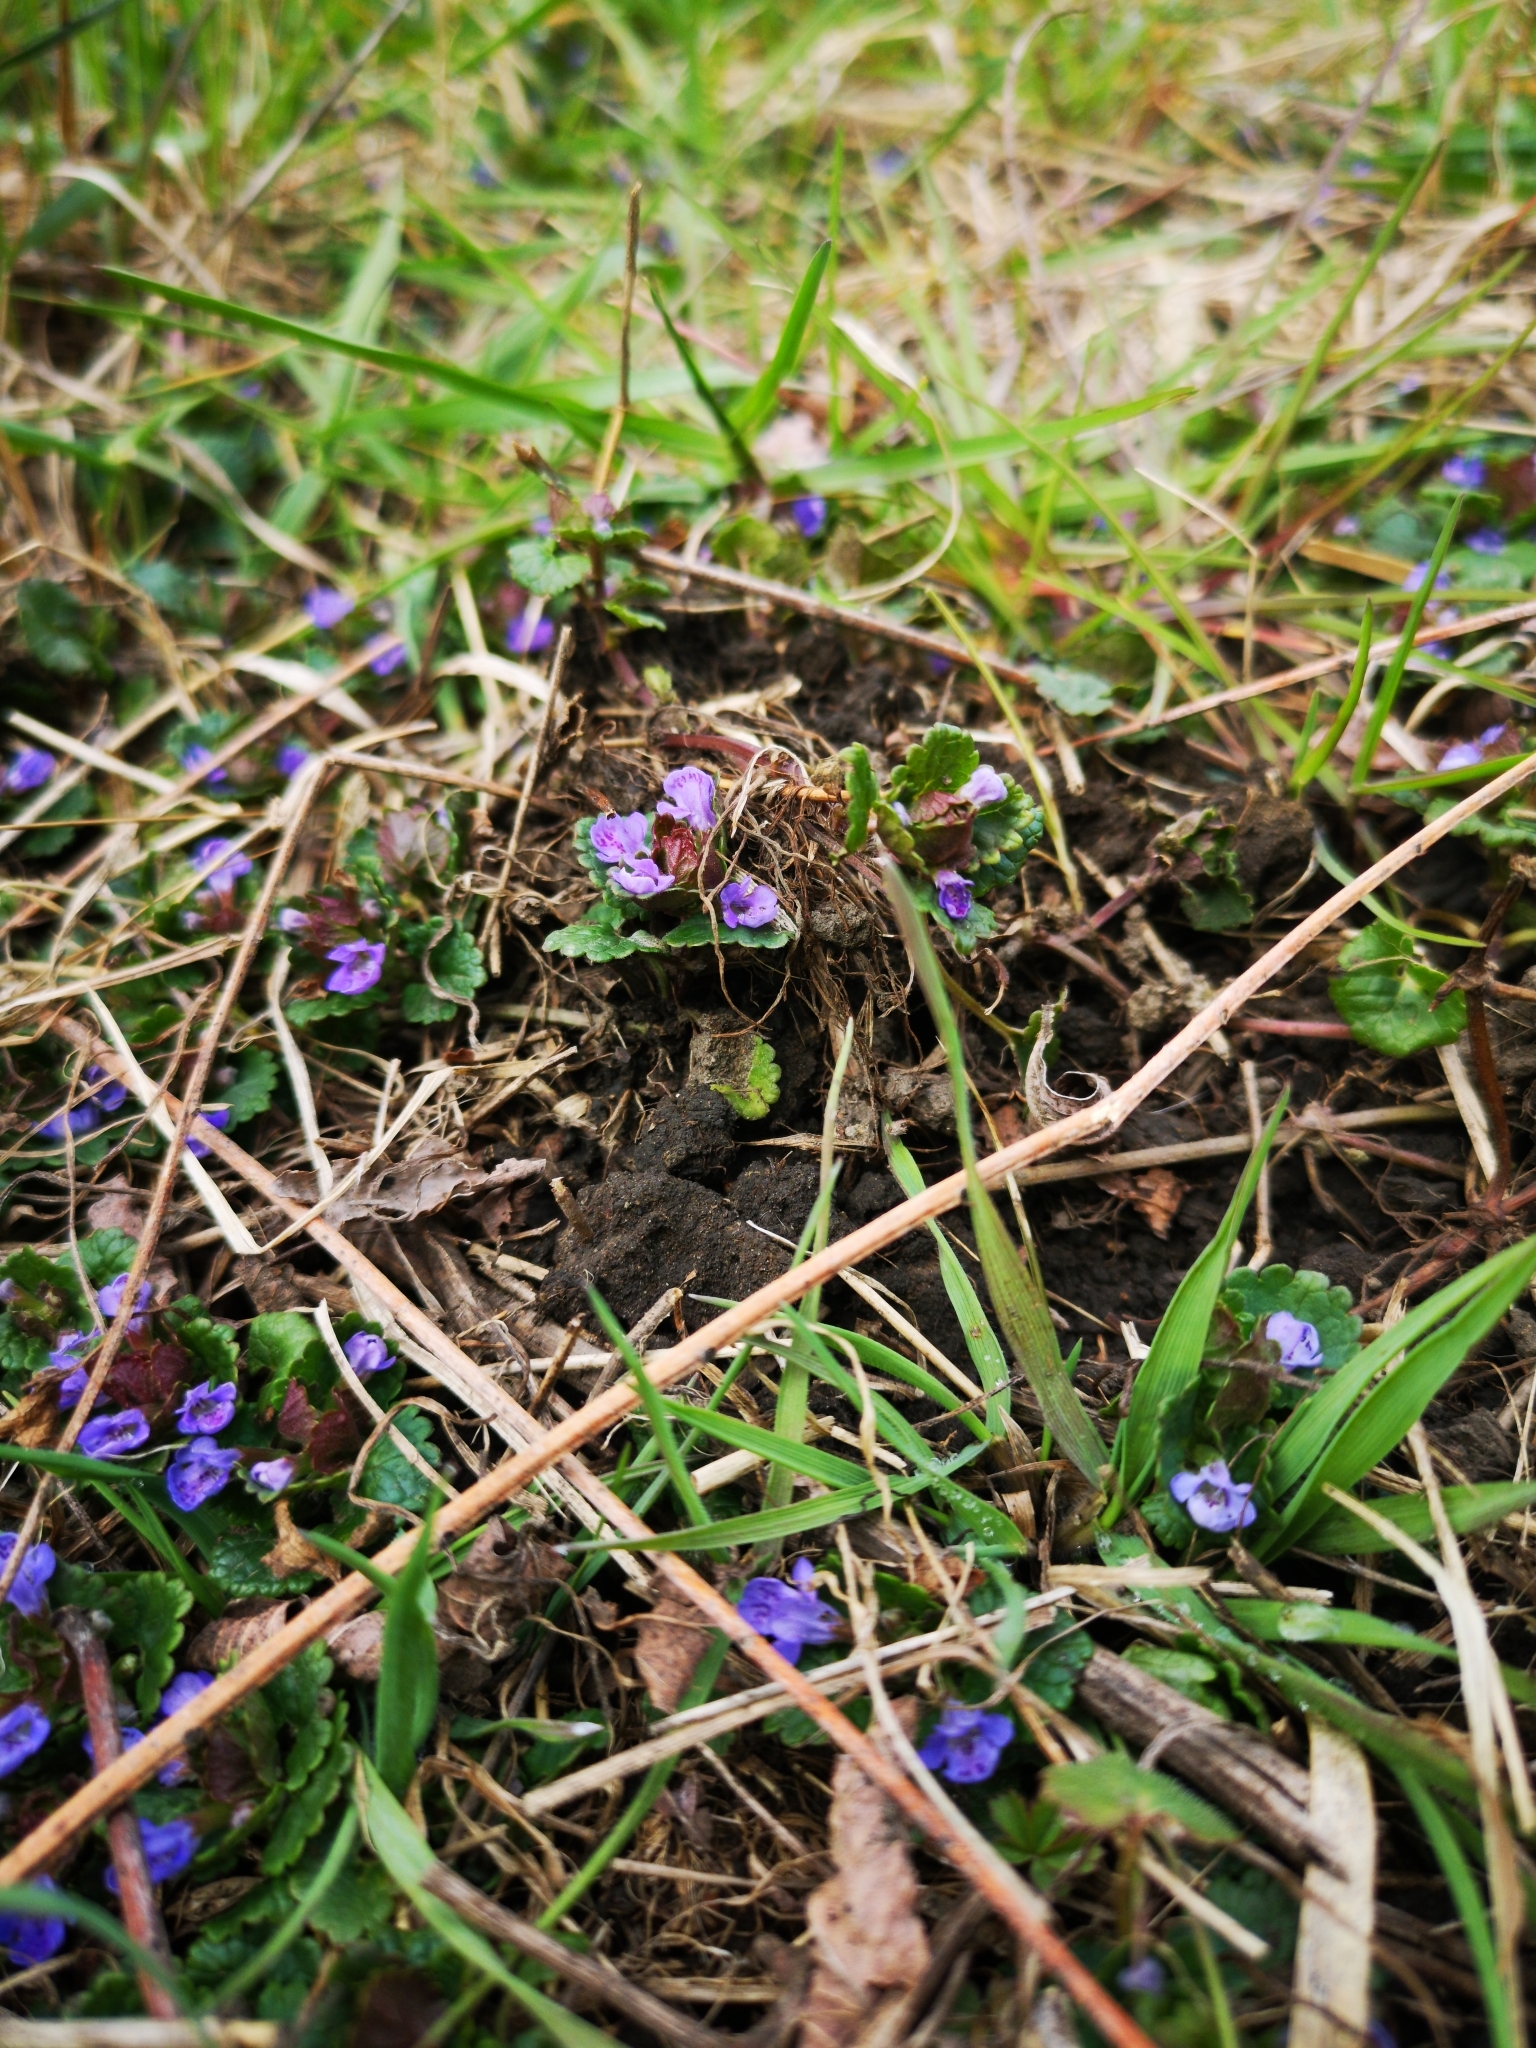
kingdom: Plantae
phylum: Tracheophyta
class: Magnoliopsida
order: Lamiales
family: Lamiaceae
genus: Glechoma
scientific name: Glechoma hederacea
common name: Ground ivy
